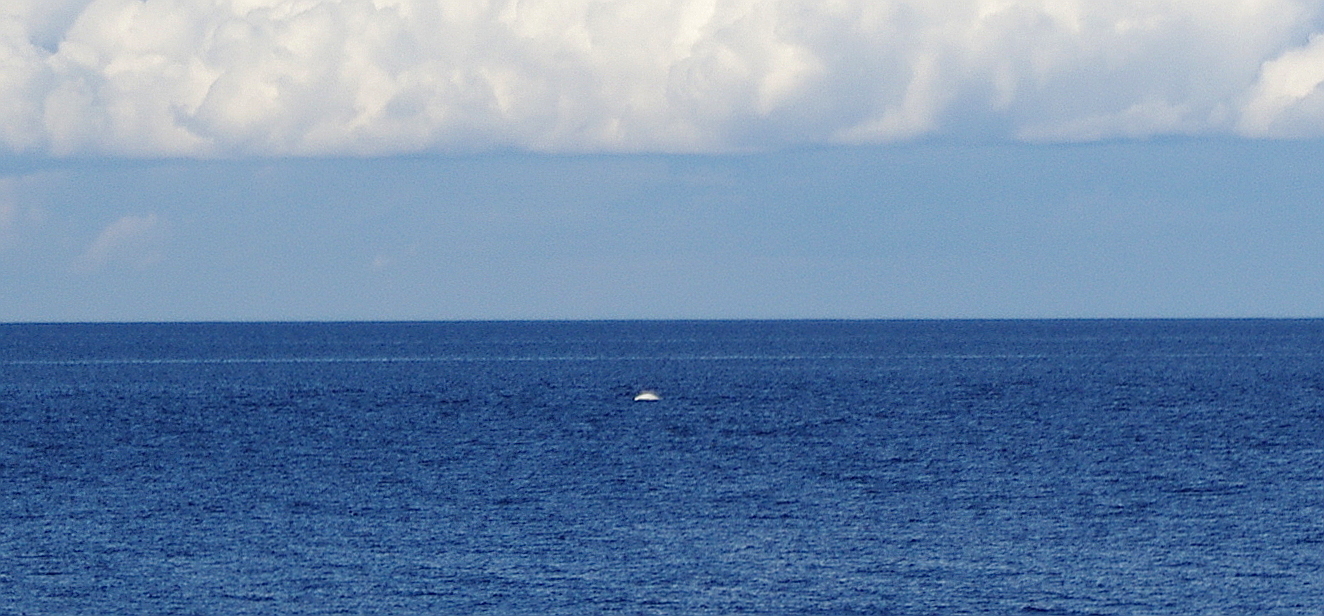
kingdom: Animalia
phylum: Chordata
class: Mammalia
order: Cetacea
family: Monodontidae
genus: Delphinapterus
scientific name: Delphinapterus leucas
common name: Beluga
